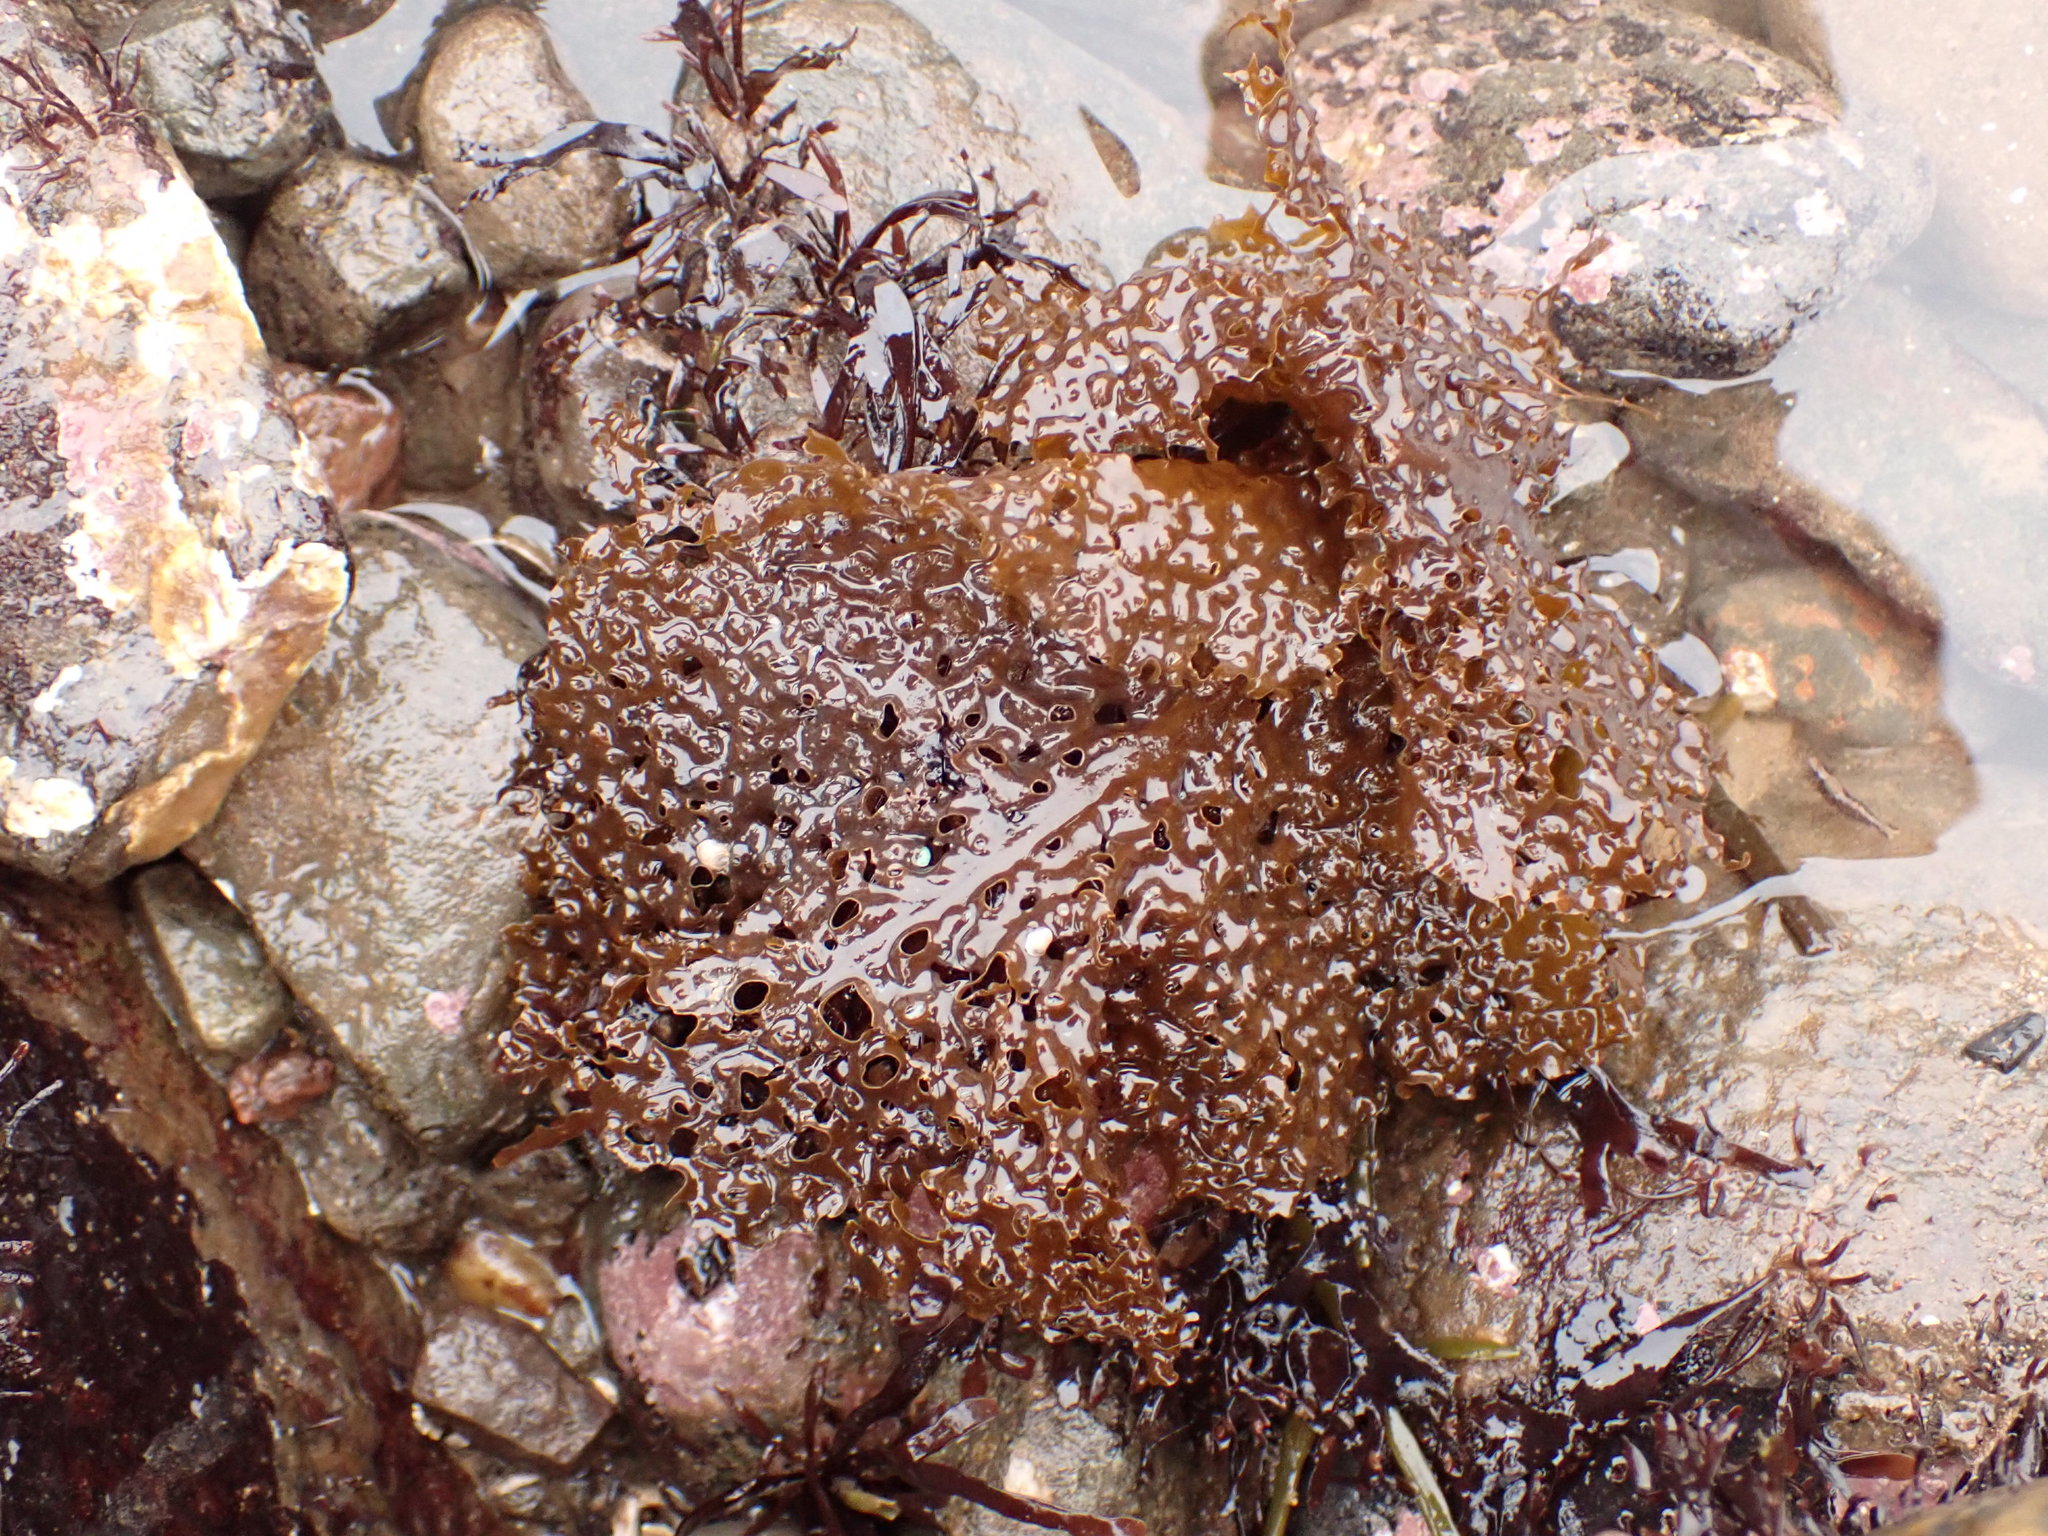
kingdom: Chromista
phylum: Ochrophyta
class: Phaeophyceae
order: Laminariales
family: Costariaceae
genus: Agarum
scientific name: Agarum clathratum
